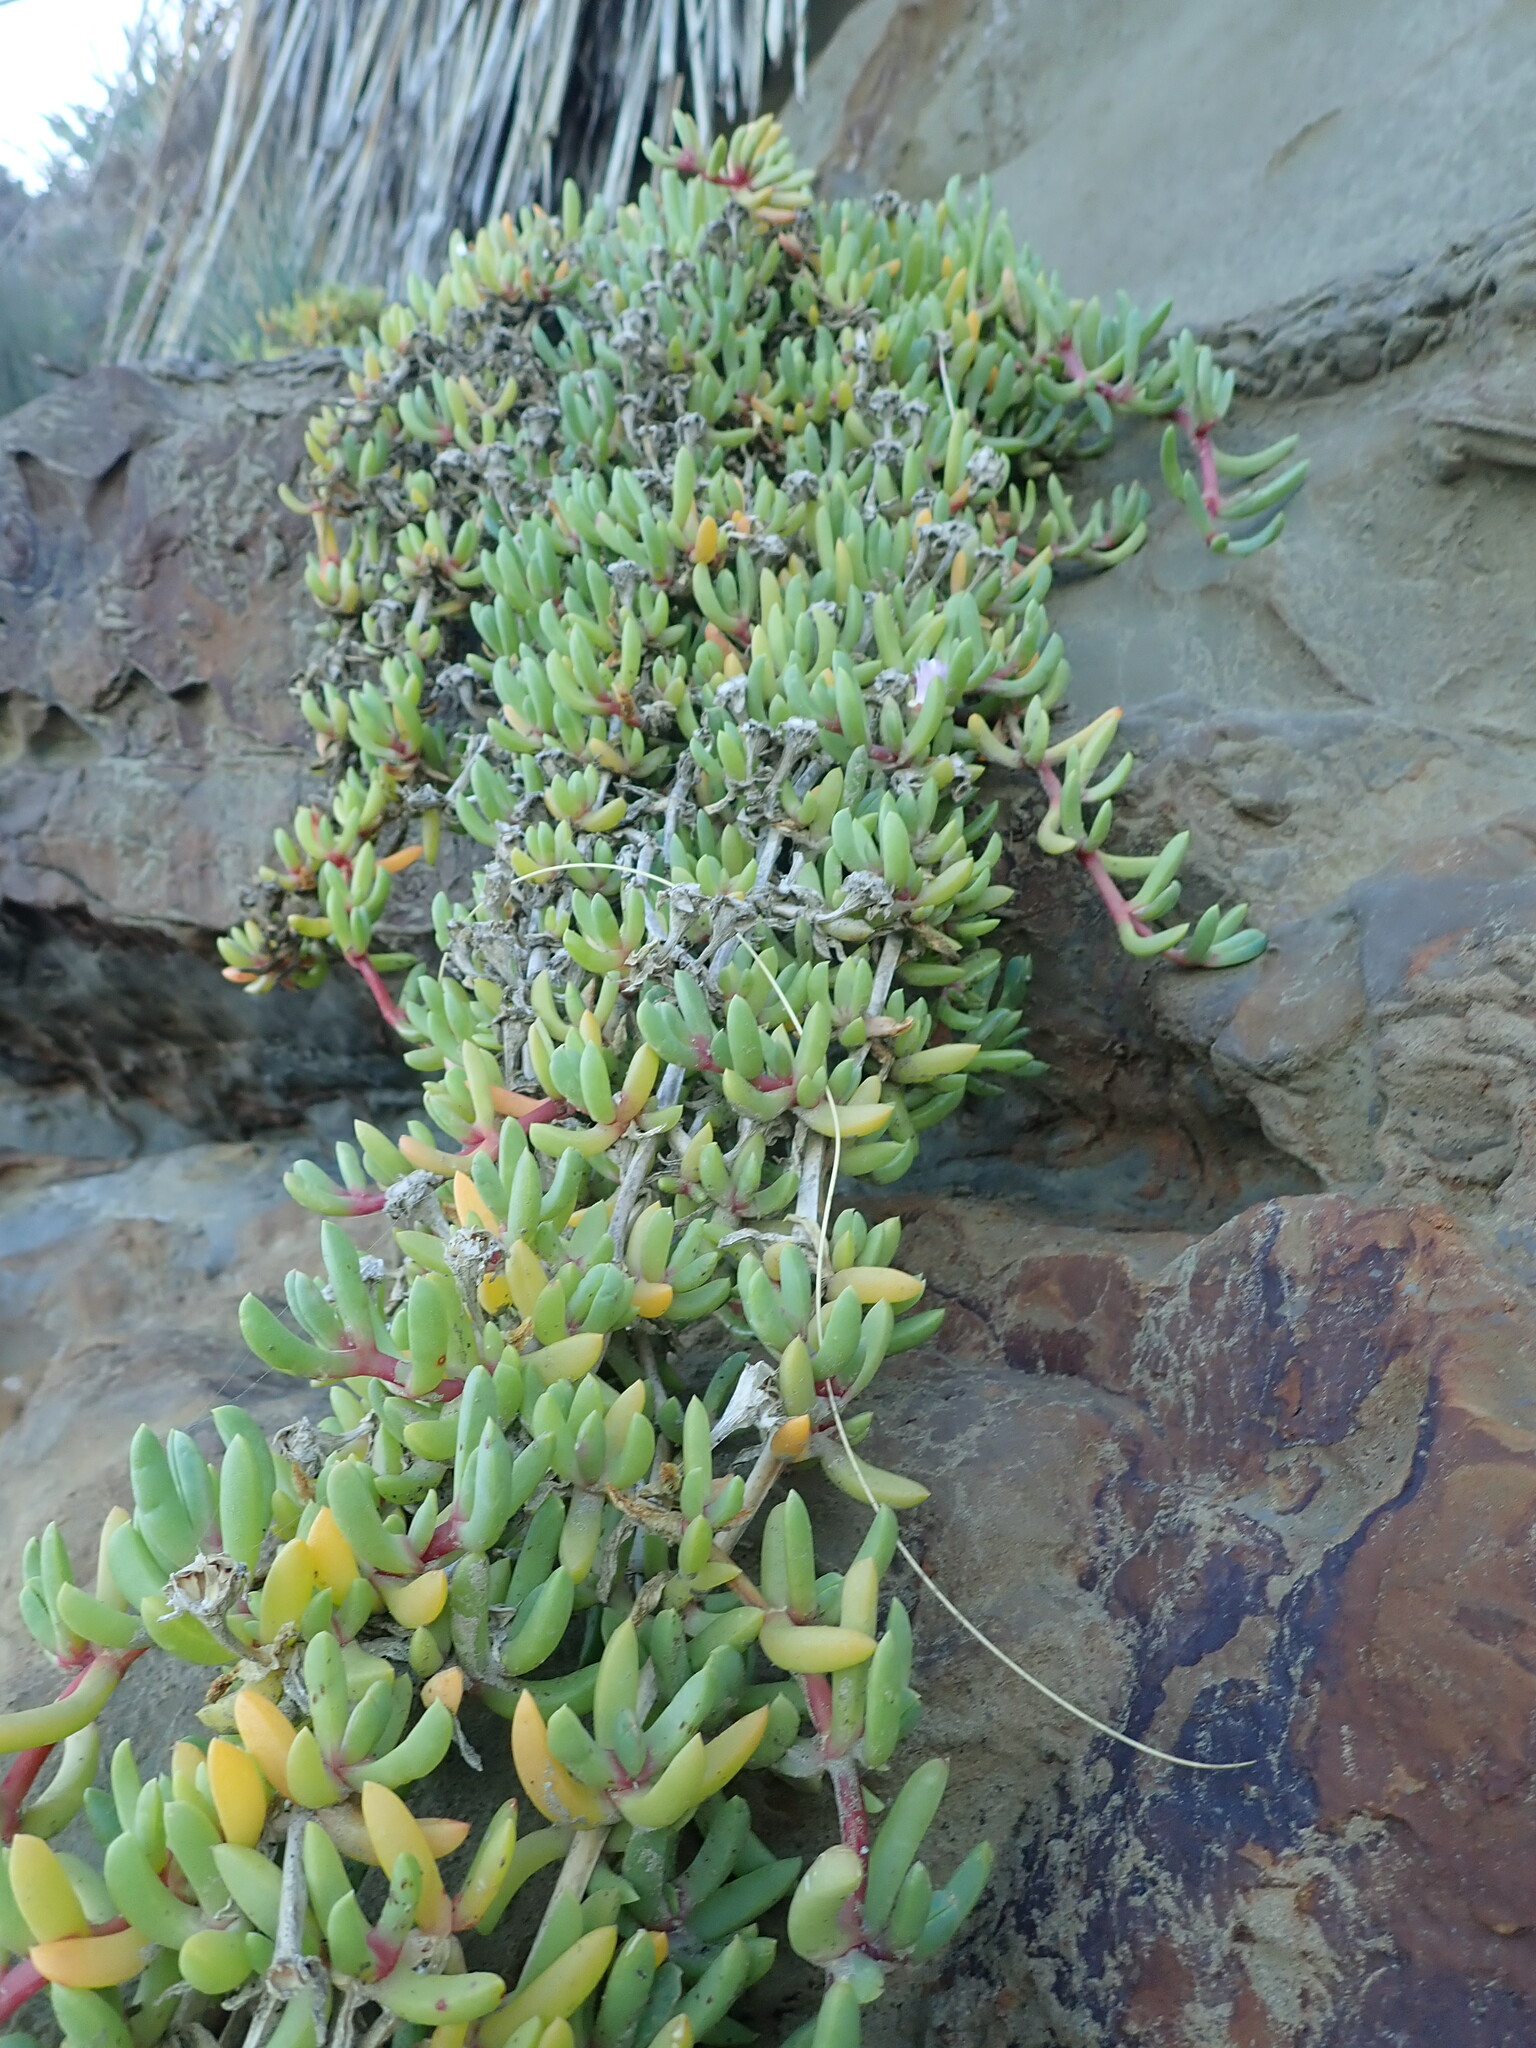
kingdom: Plantae
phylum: Tracheophyta
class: Magnoliopsida
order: Caryophyllales
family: Aizoaceae
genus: Disphyma
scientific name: Disphyma australe
